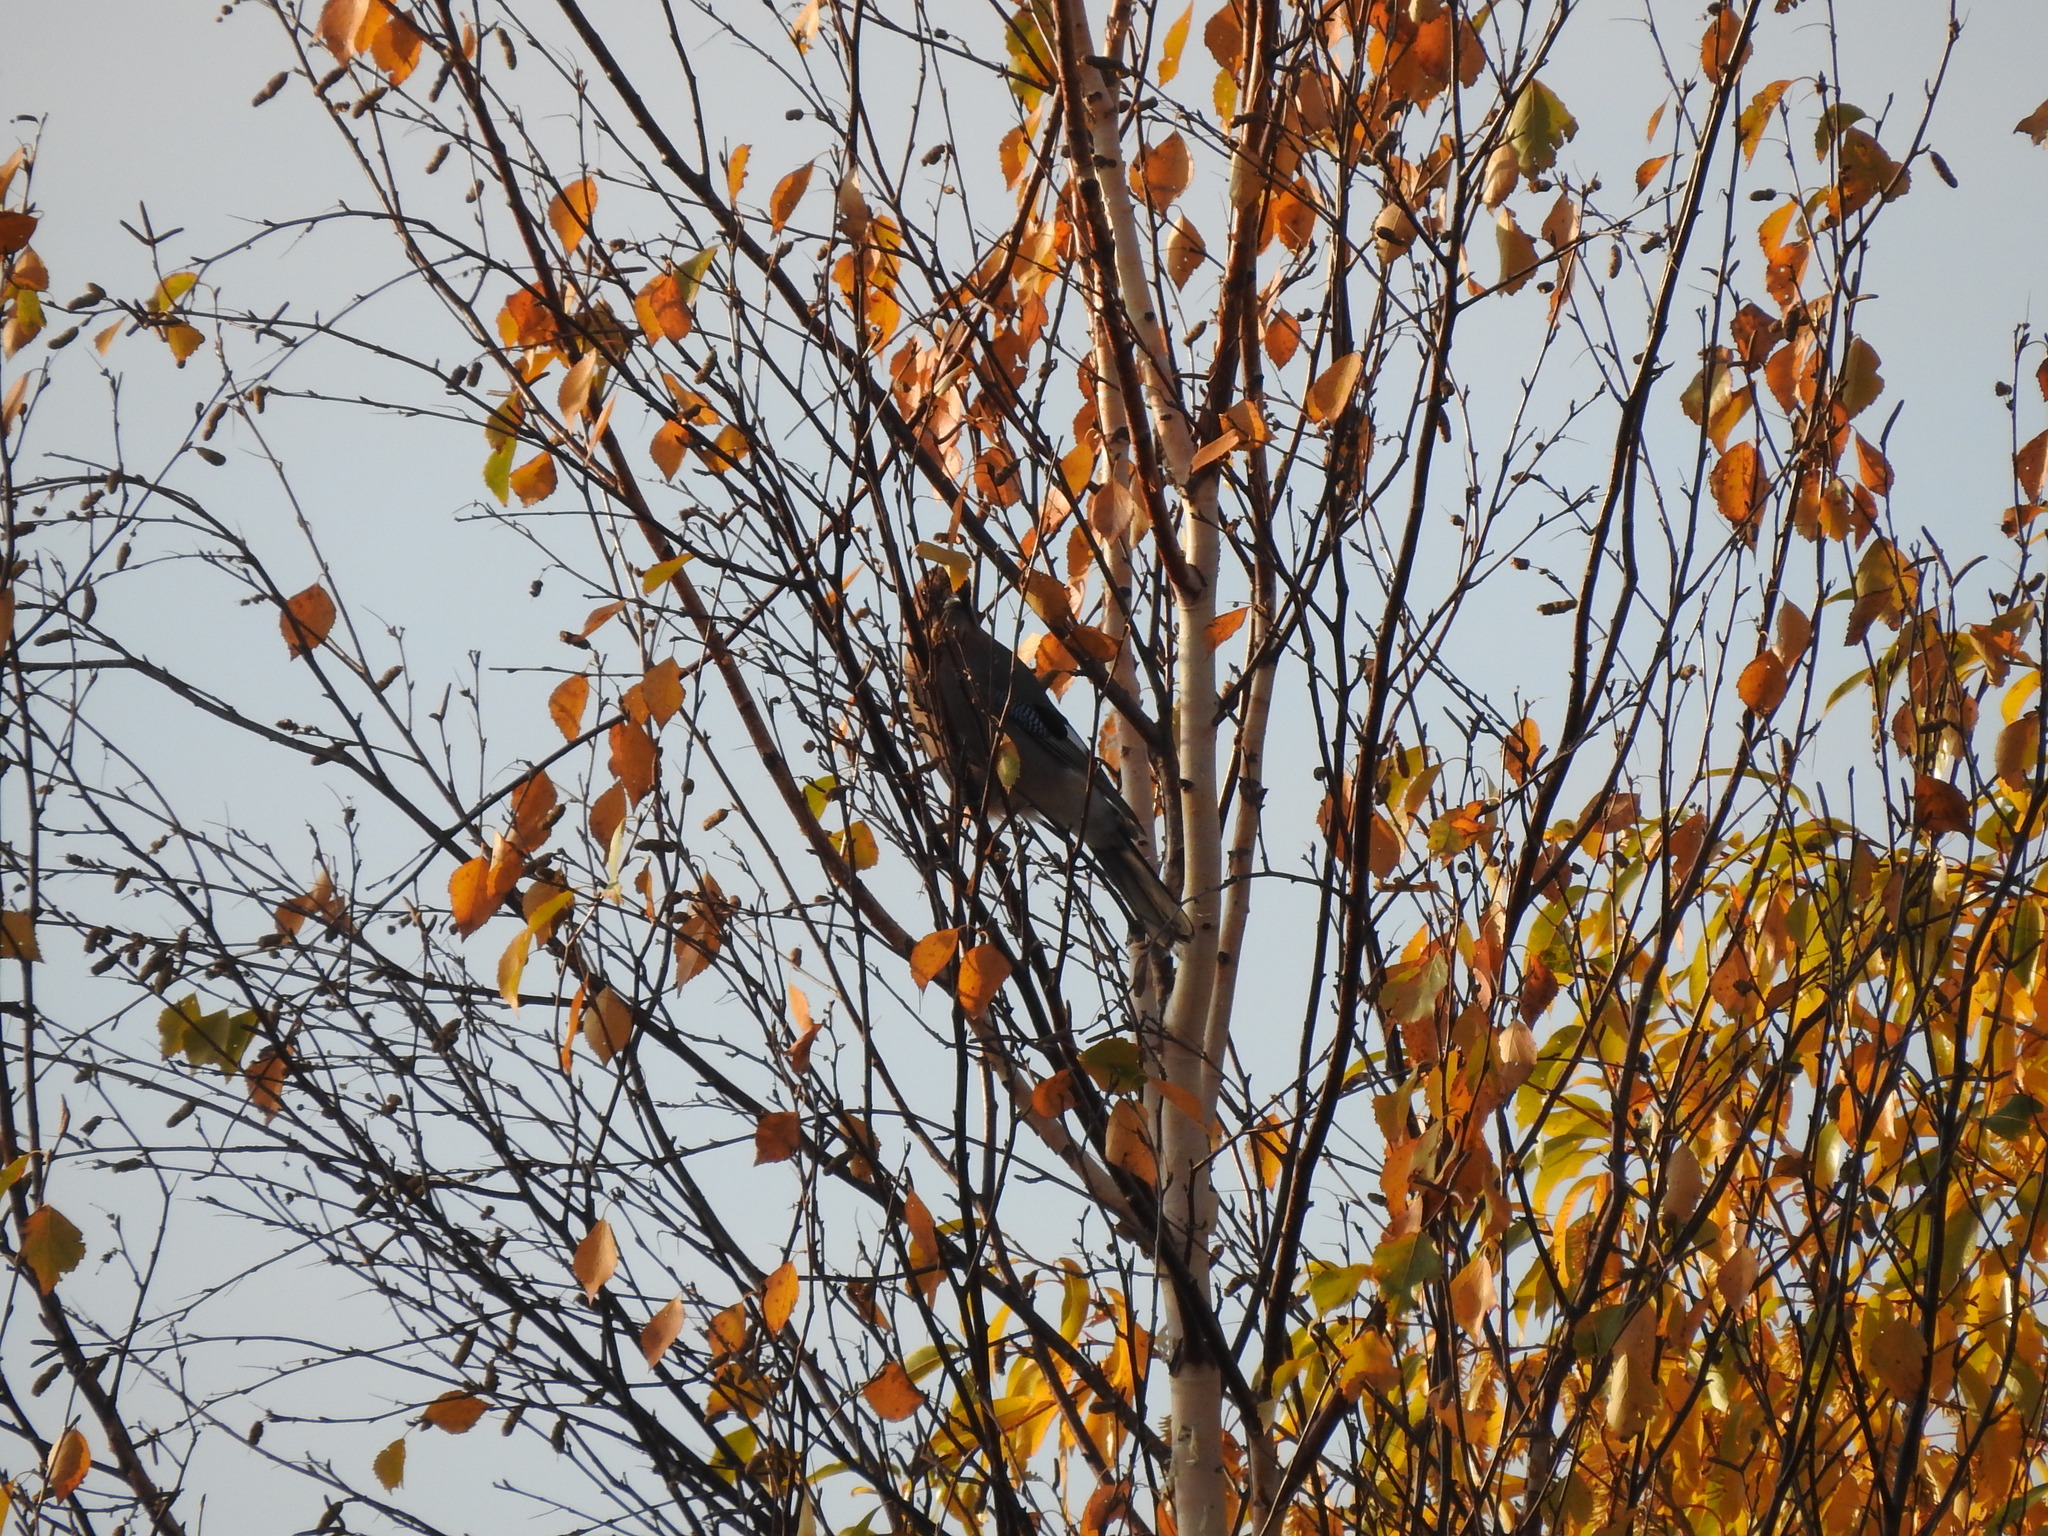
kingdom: Animalia
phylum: Chordata
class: Aves
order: Passeriformes
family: Corvidae
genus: Garrulus
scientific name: Garrulus glandarius
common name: Eurasian jay
